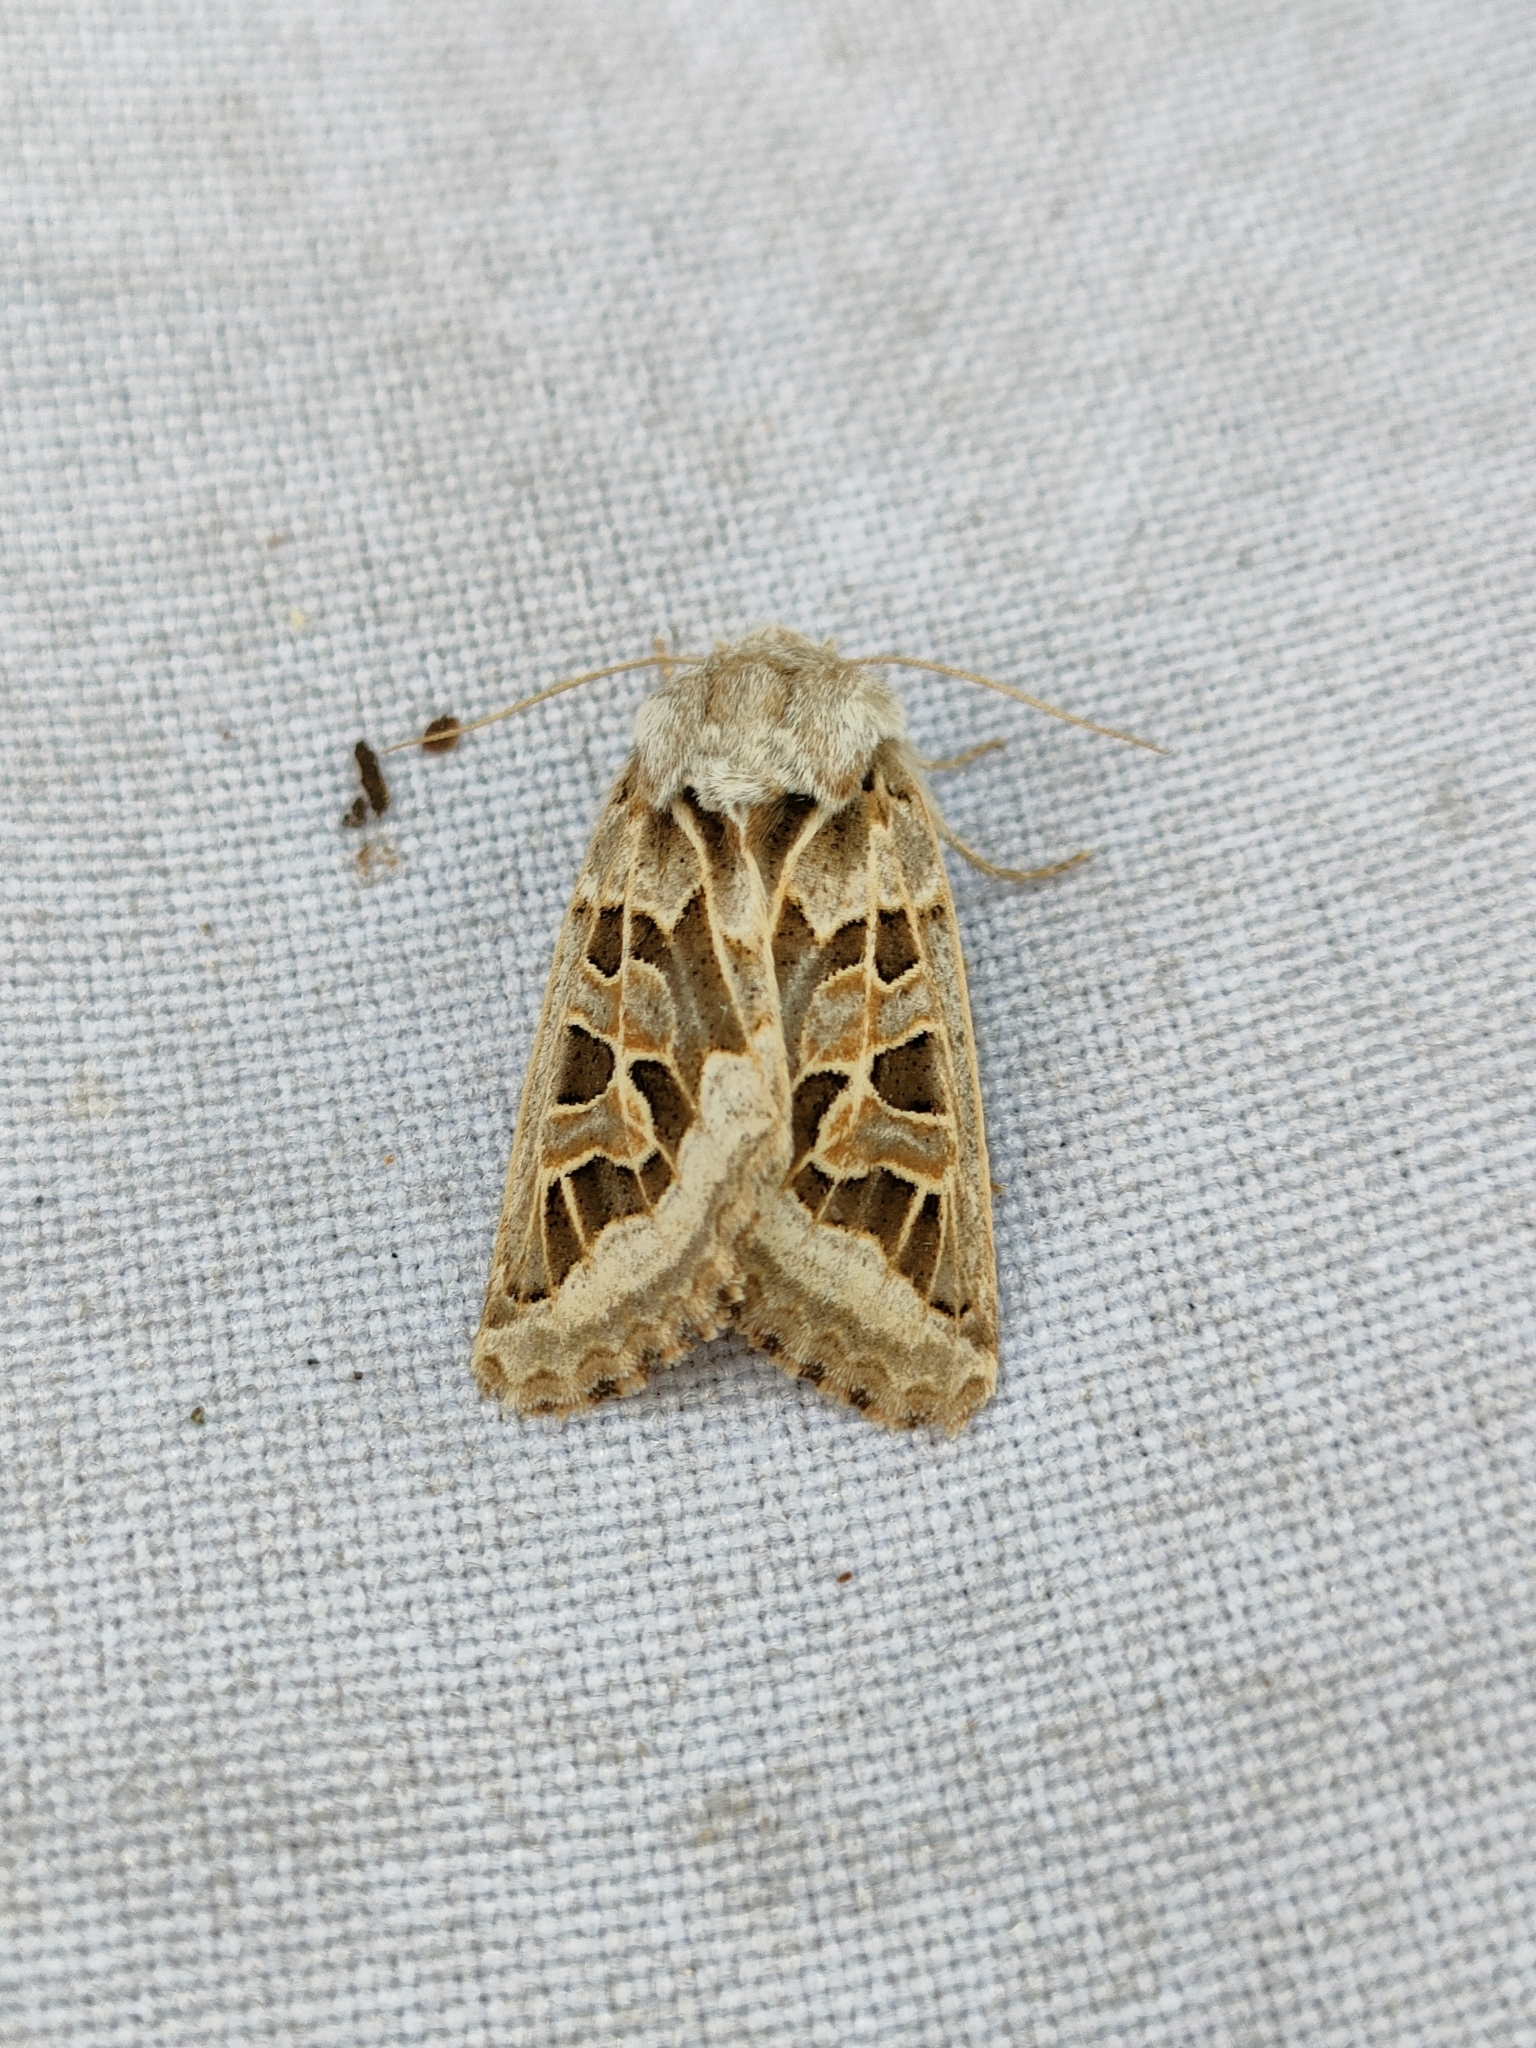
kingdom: Animalia
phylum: Arthropoda
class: Insecta
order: Lepidoptera
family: Noctuidae
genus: Episema
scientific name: Episema grueneri
